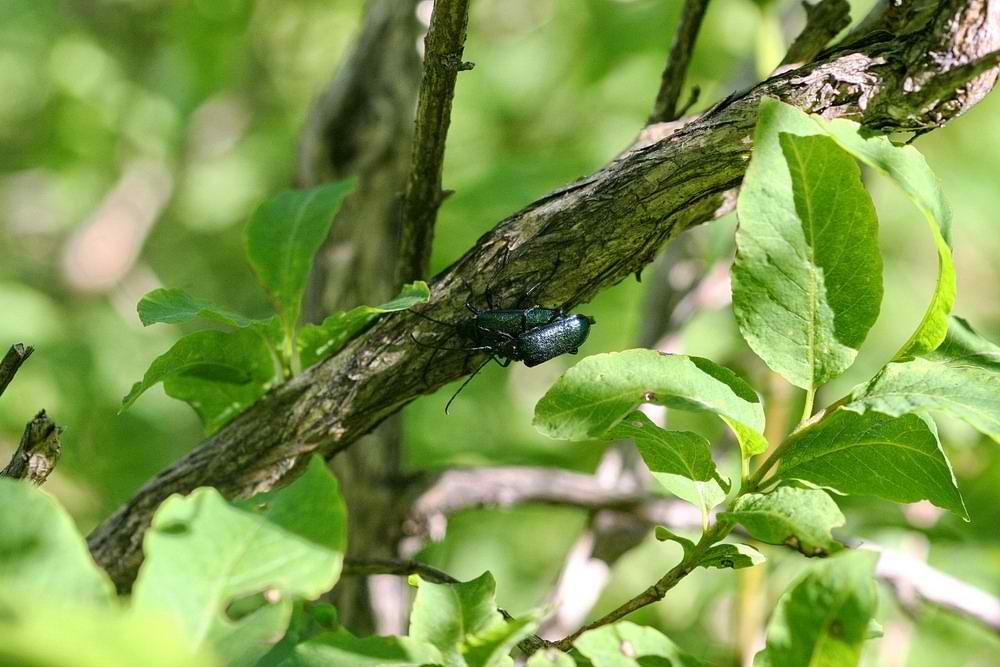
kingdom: Animalia
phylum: Arthropoda
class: Insecta
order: Coleoptera
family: Cerambycidae
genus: Pseudogaurotina
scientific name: Pseudogaurotina excellens
